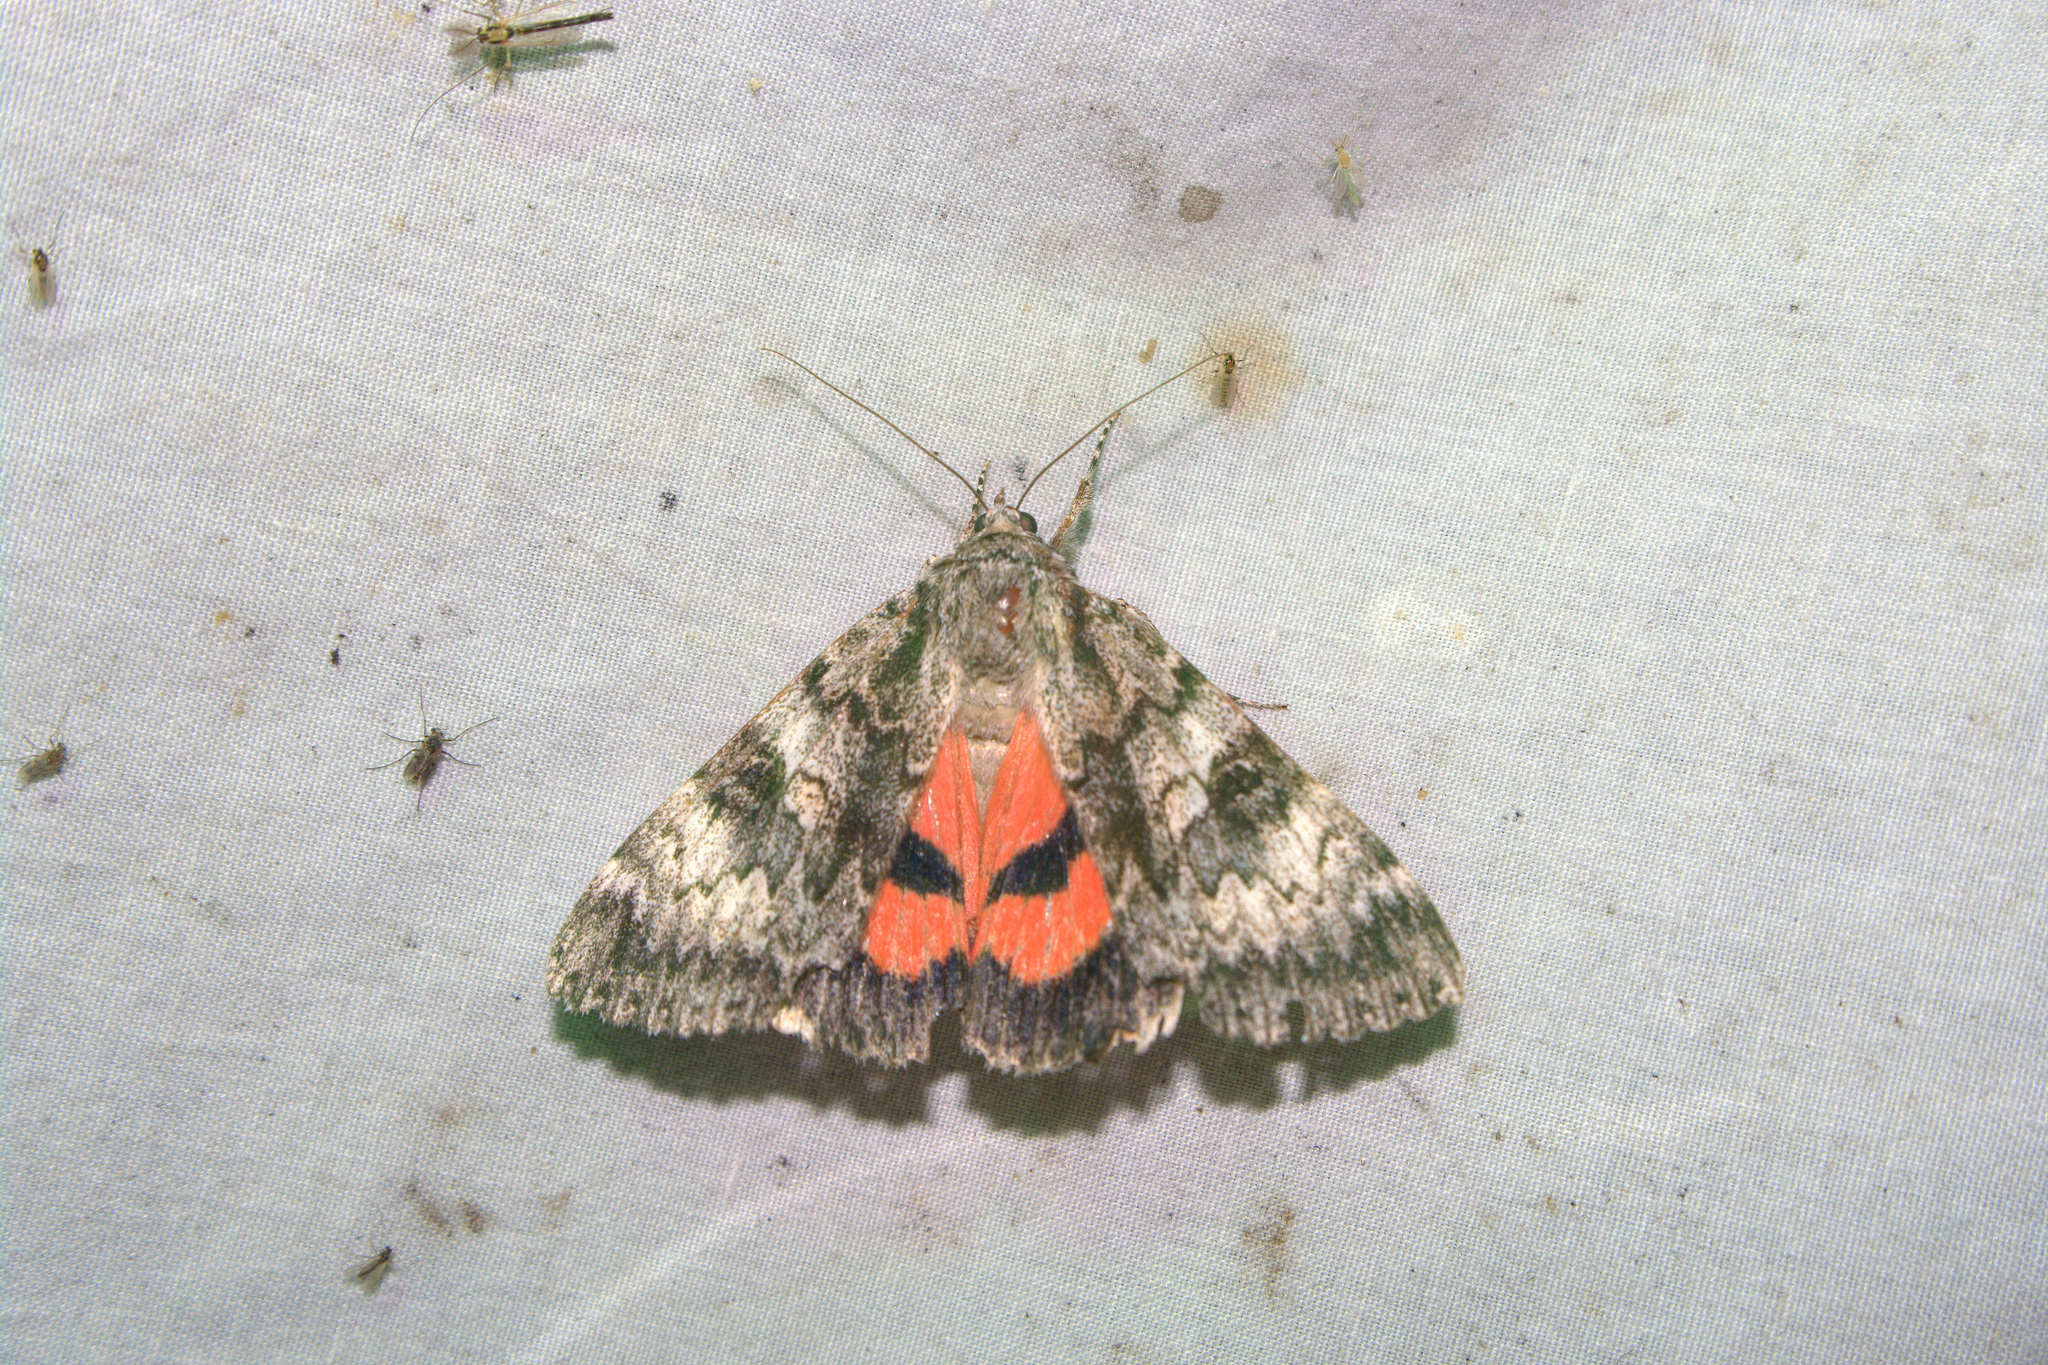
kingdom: Animalia
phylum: Arthropoda
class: Insecta
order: Lepidoptera
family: Erebidae
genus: Catocala
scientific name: Catocala semirelicta
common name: Semirelict underwing moth
